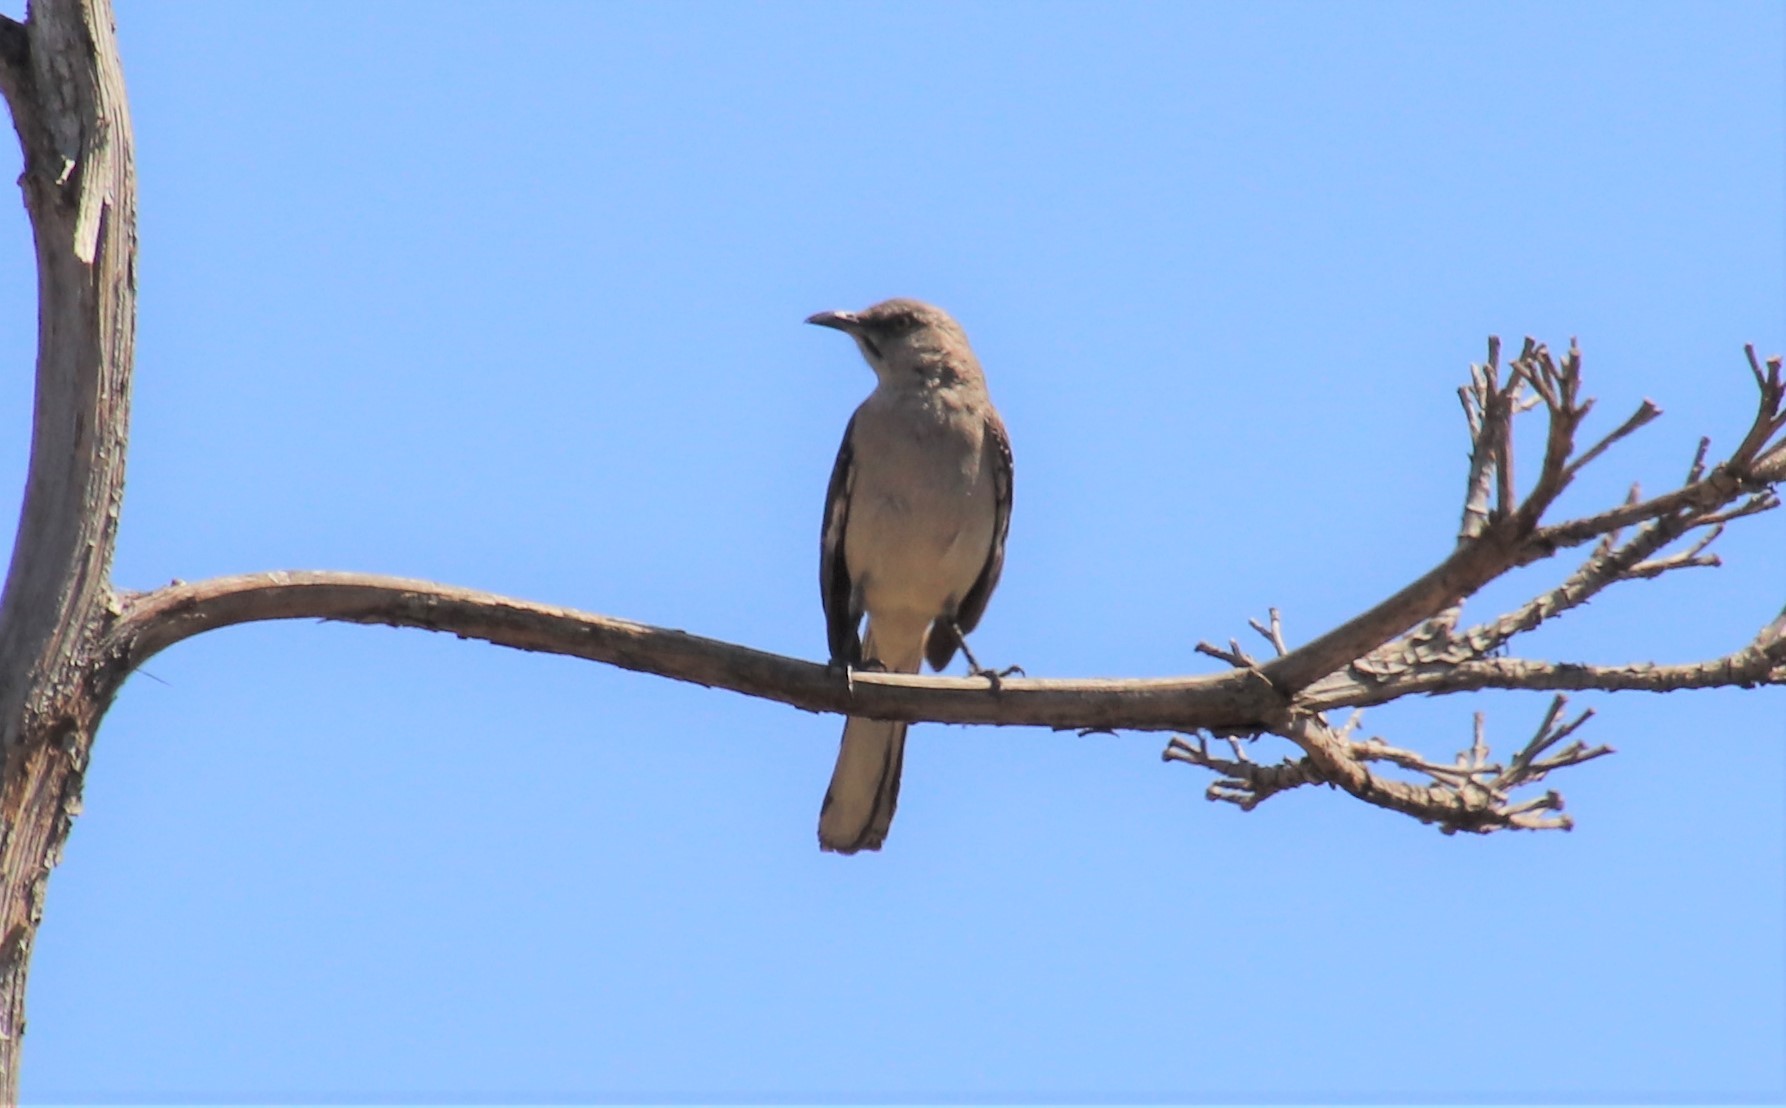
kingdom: Animalia
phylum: Chordata
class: Aves
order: Passeriformes
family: Mimidae
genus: Mimus
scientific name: Mimus polyglottos
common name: Northern mockingbird
